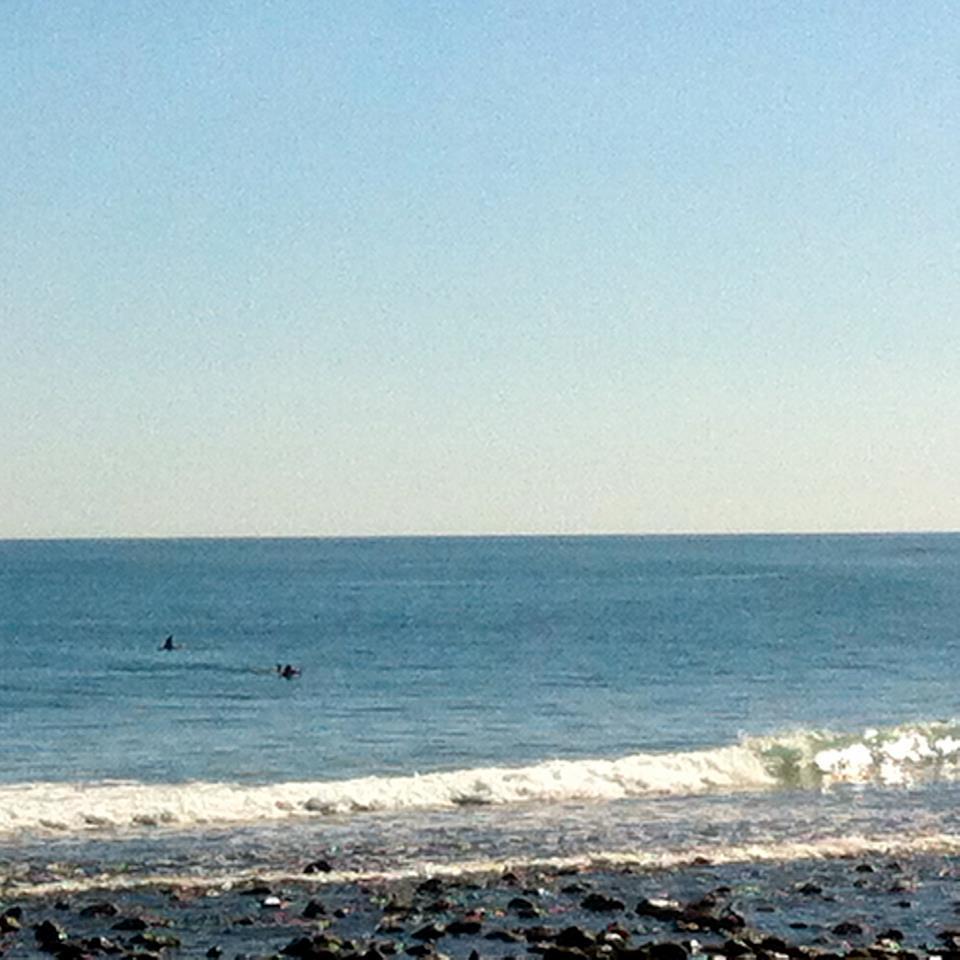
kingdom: Animalia
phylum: Chordata
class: Mammalia
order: Cetacea
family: Delphinidae
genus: Orcinus
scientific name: Orcinus orca
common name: Killer whale
